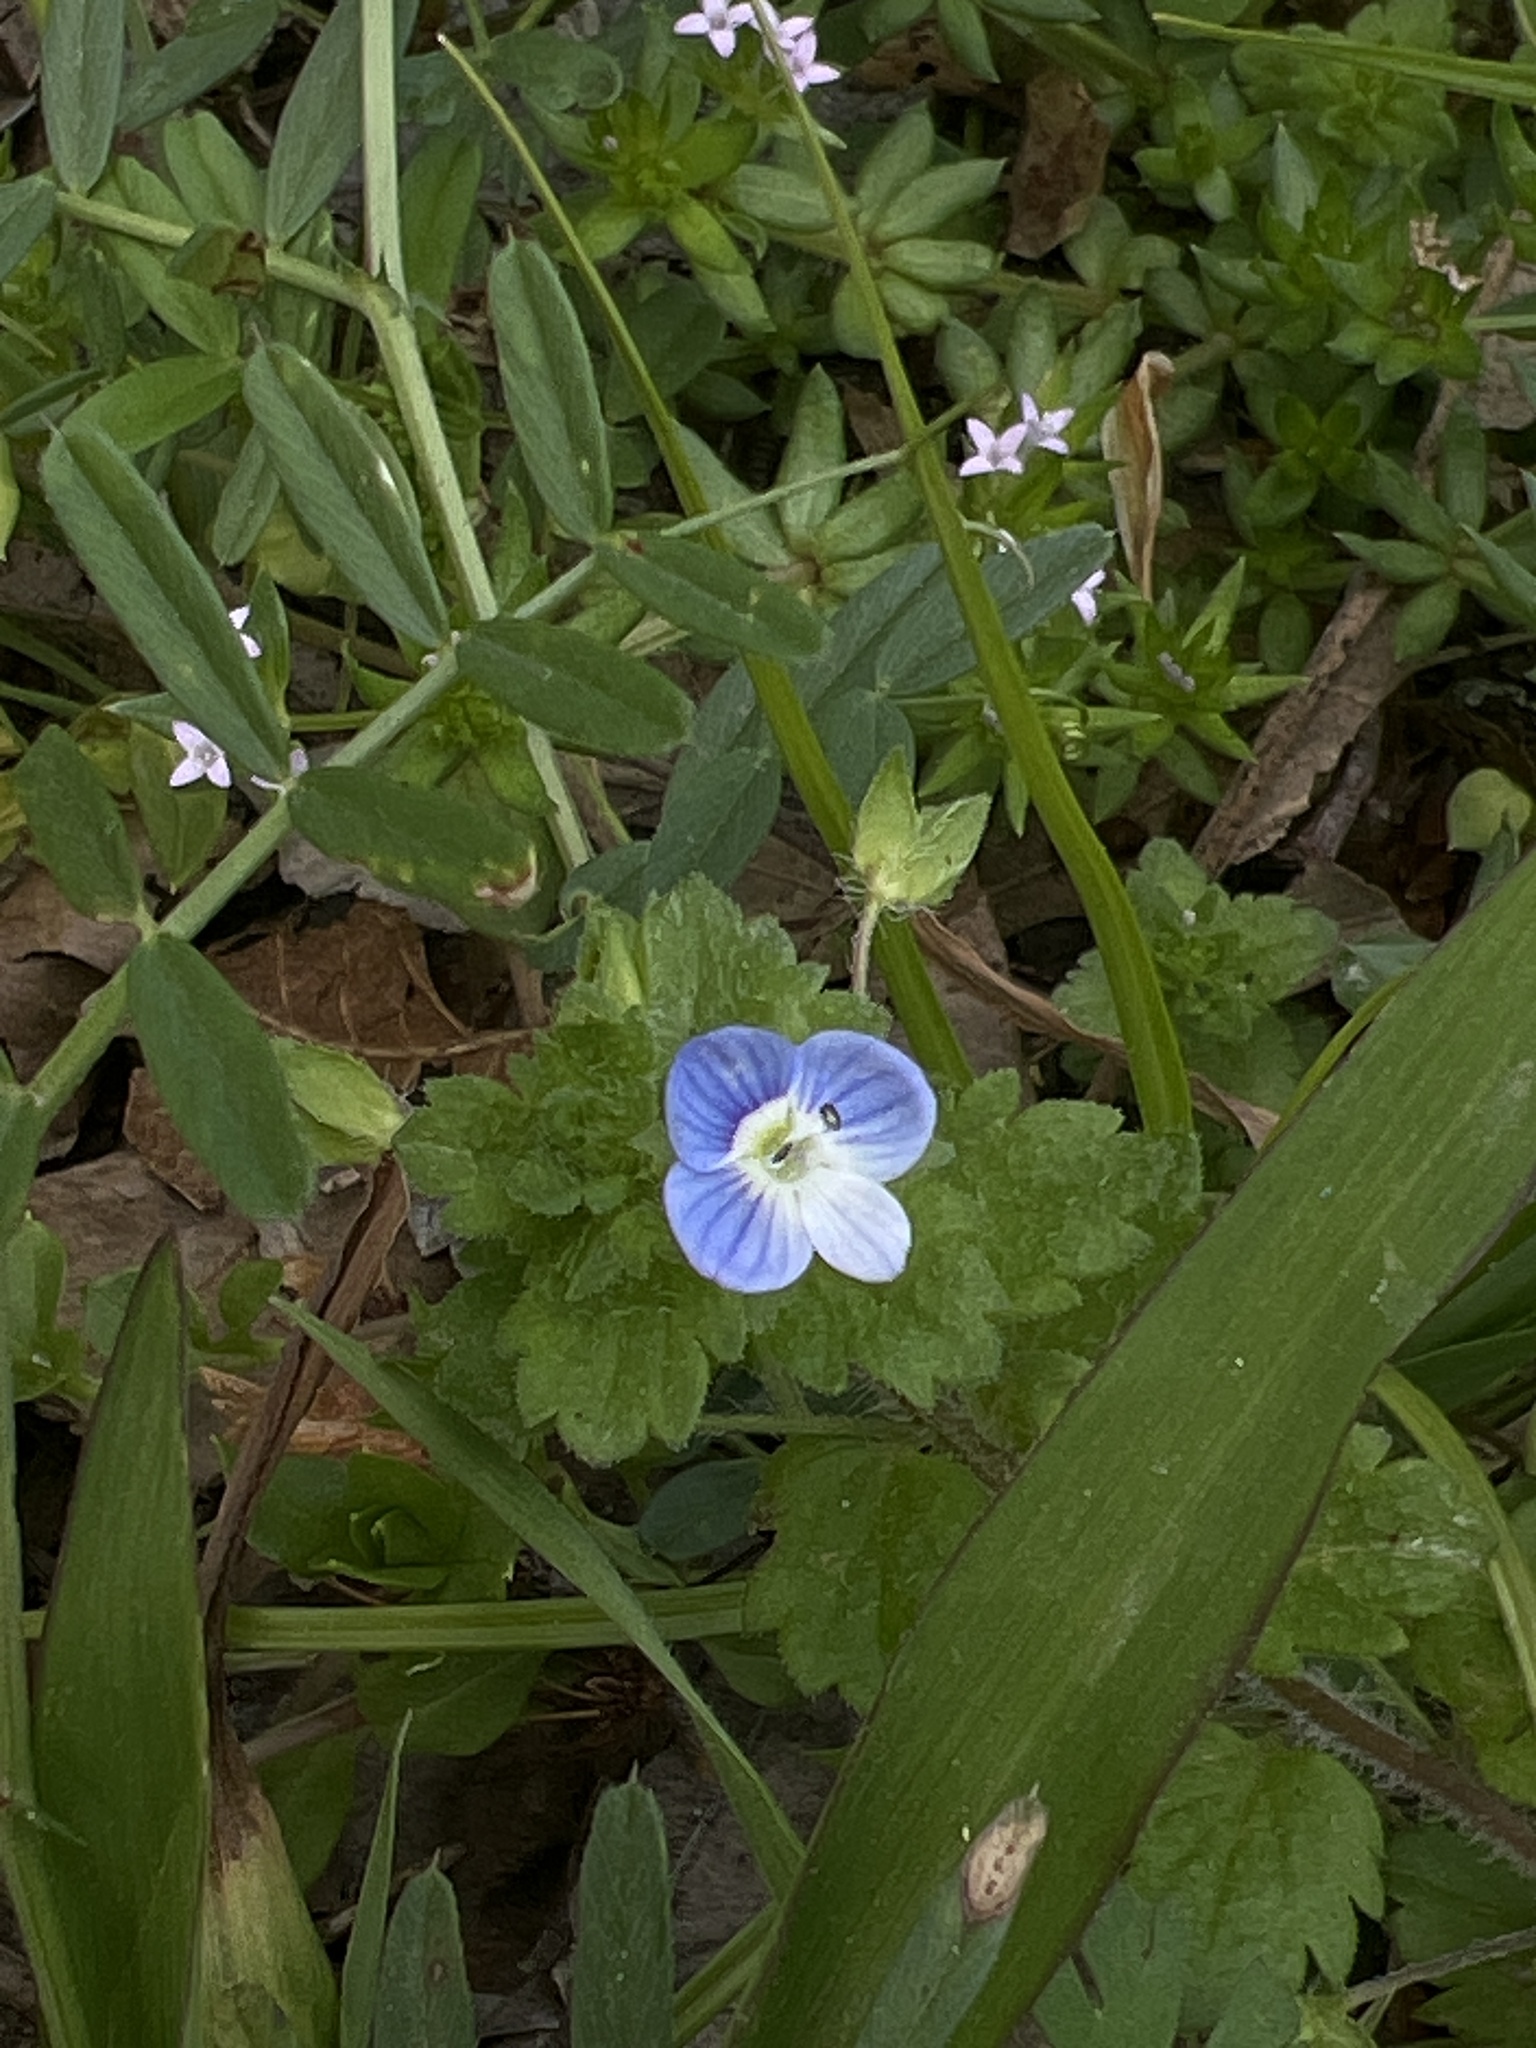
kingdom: Plantae
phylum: Tracheophyta
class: Magnoliopsida
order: Lamiales
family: Plantaginaceae
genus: Veronica
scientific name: Veronica persica
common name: Common field-speedwell
